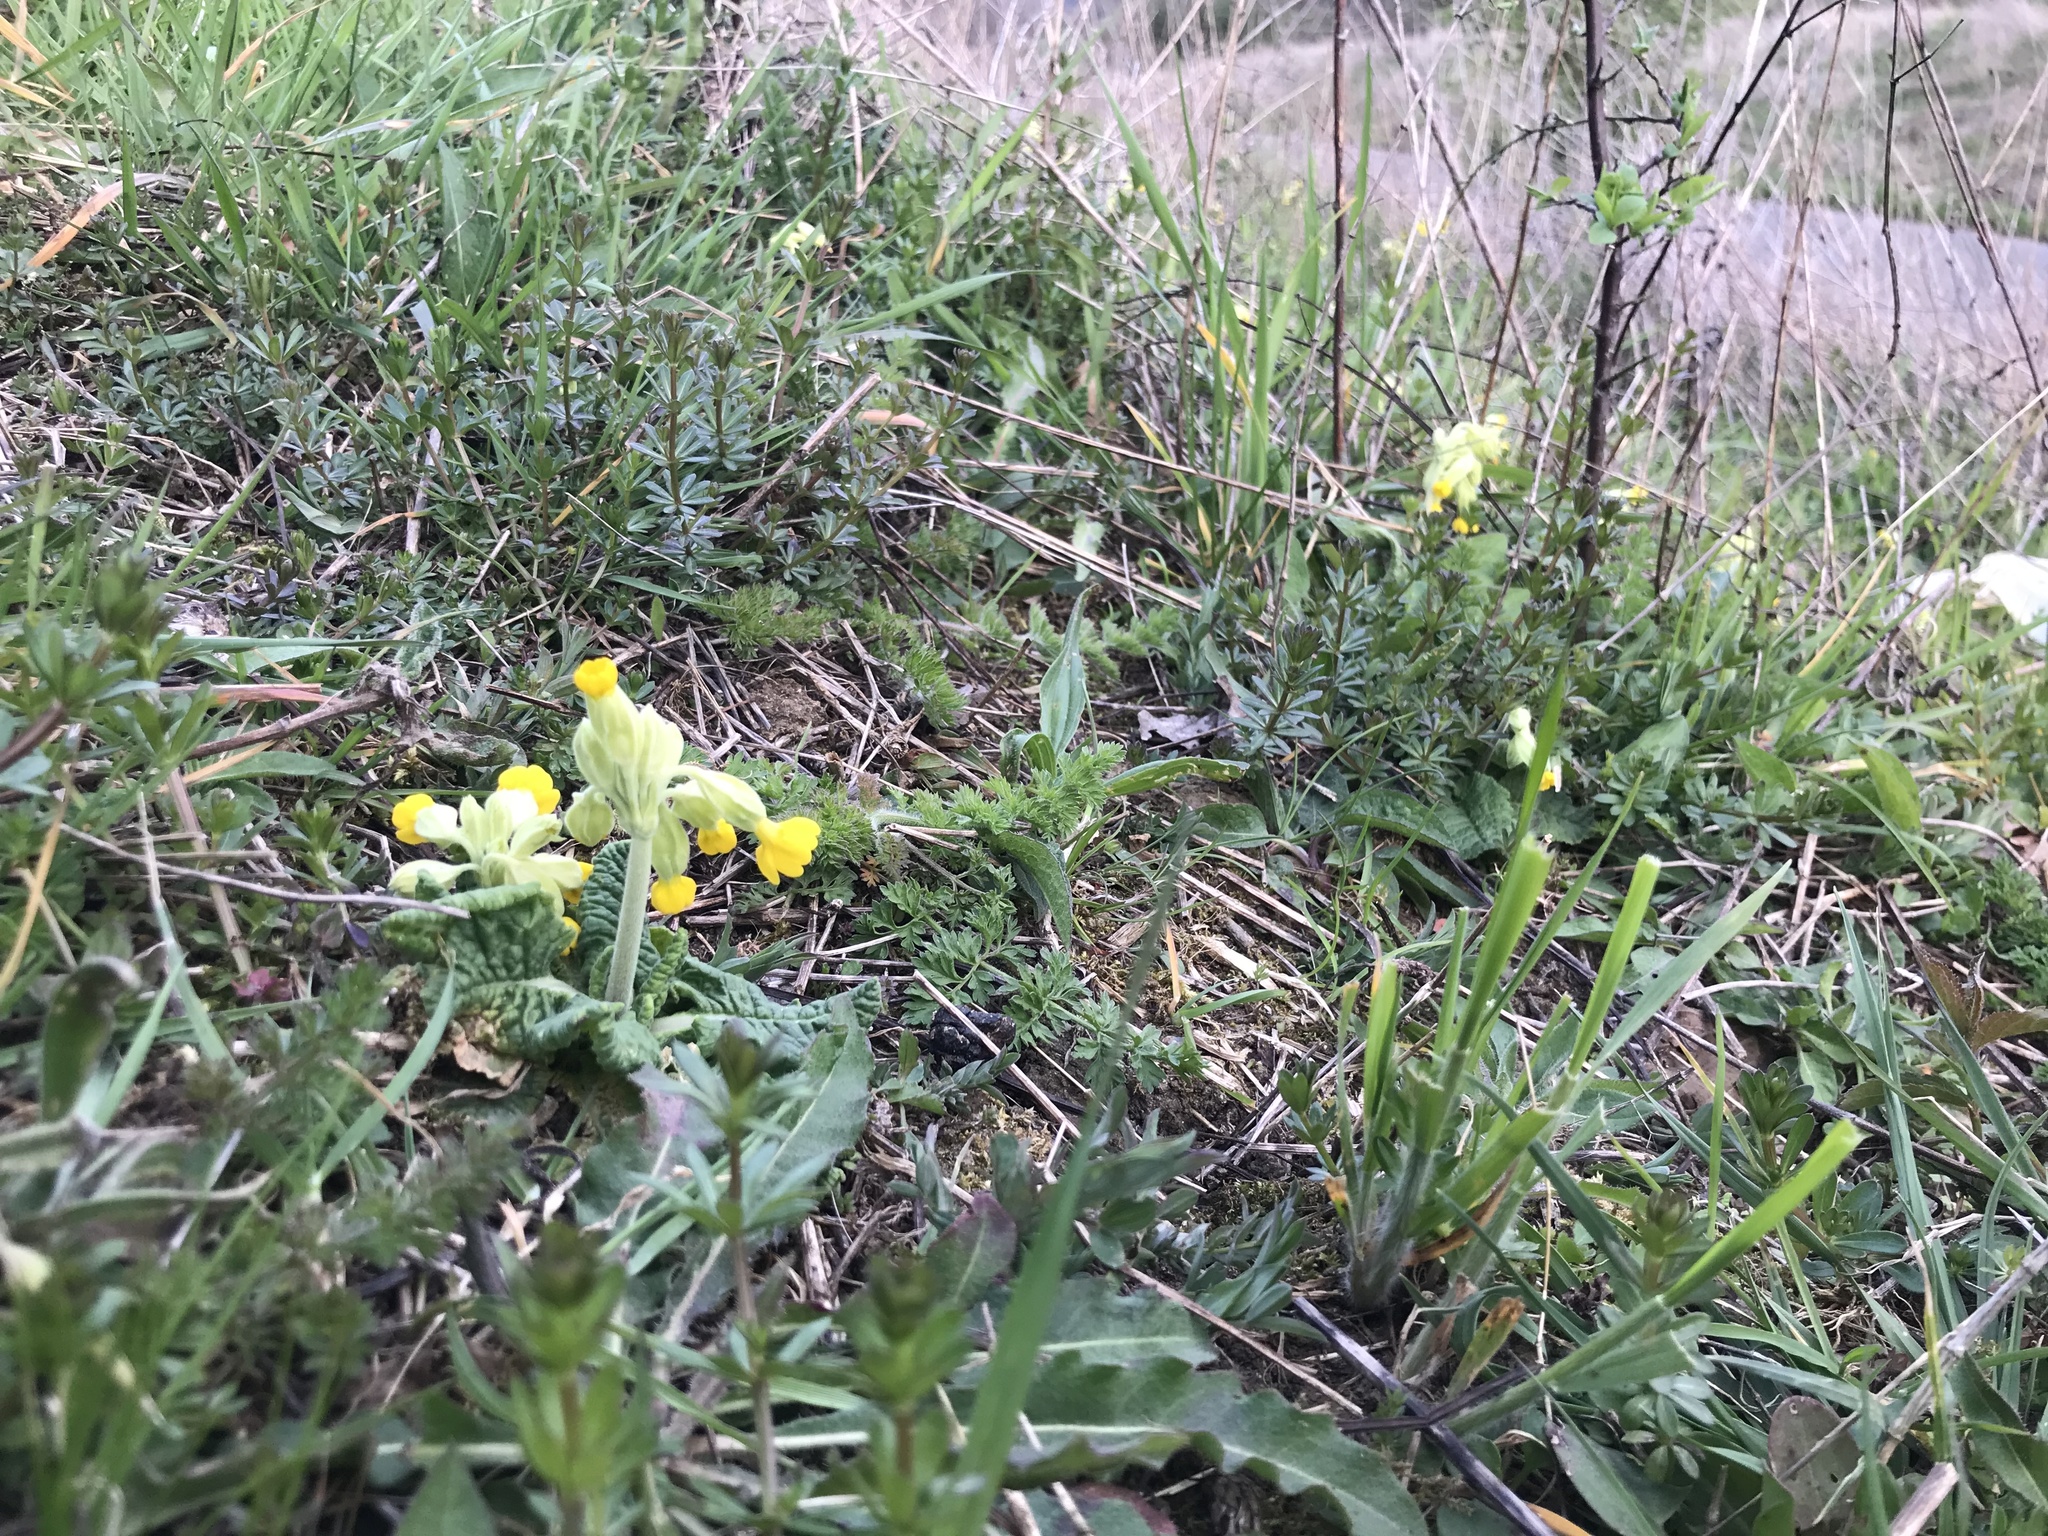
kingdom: Plantae
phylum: Tracheophyta
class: Magnoliopsida
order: Ericales
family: Primulaceae
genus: Primula
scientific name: Primula veris
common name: Cowslip
